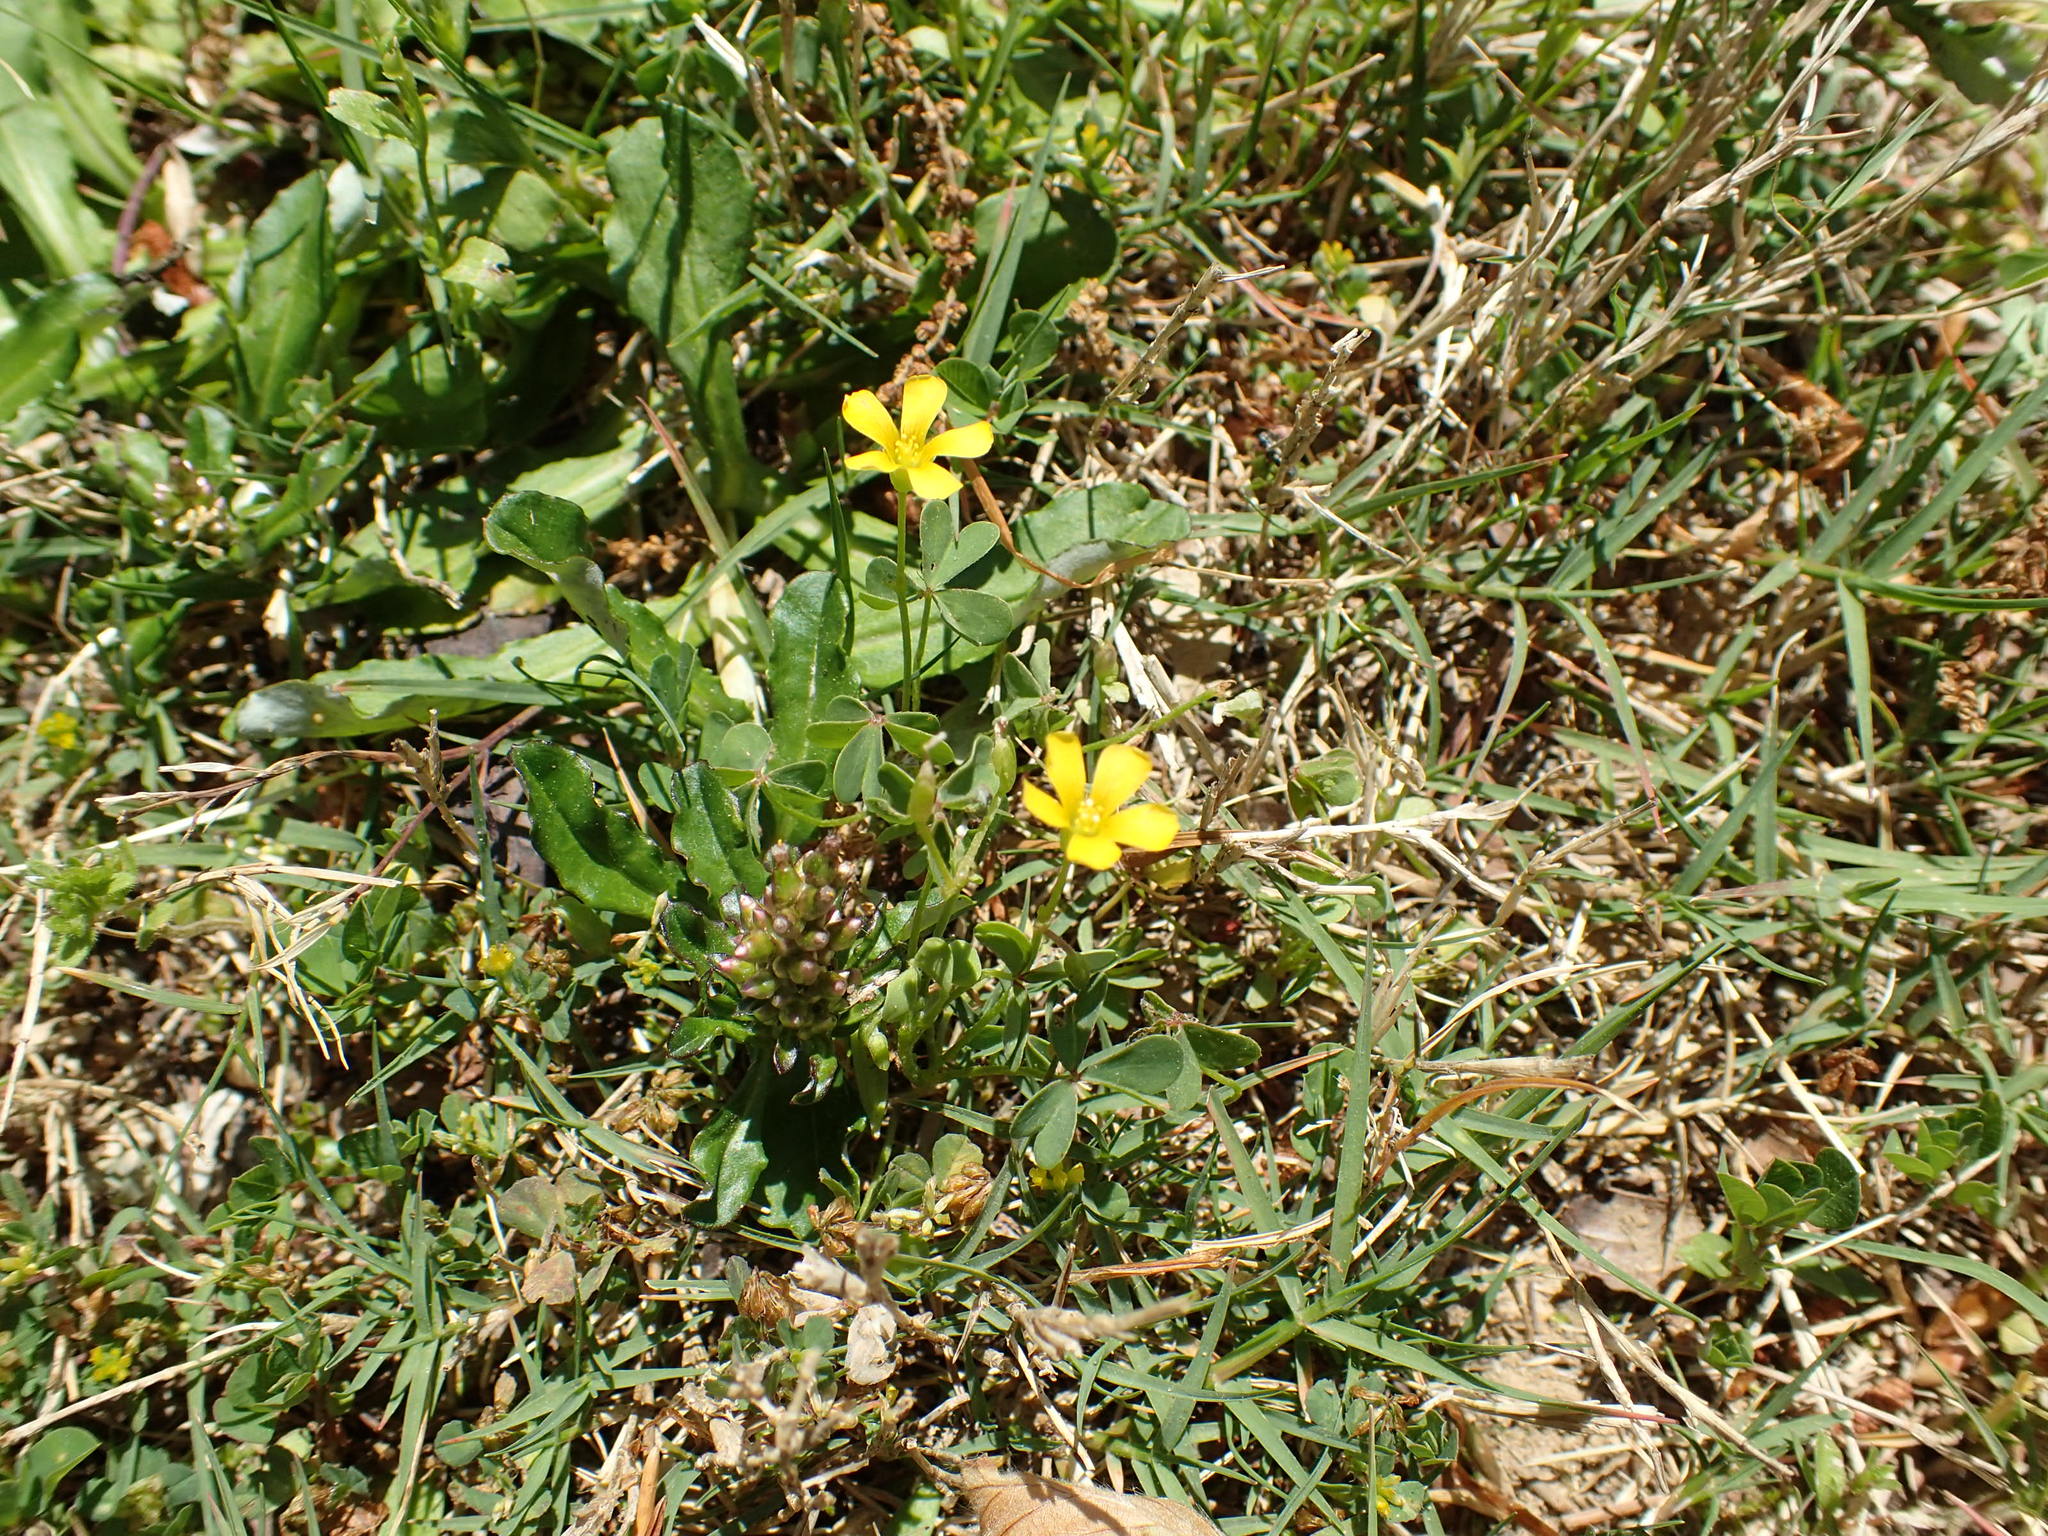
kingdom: Plantae
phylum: Tracheophyta
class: Magnoliopsida
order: Oxalidales
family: Oxalidaceae
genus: Oxalis
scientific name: Oxalis
